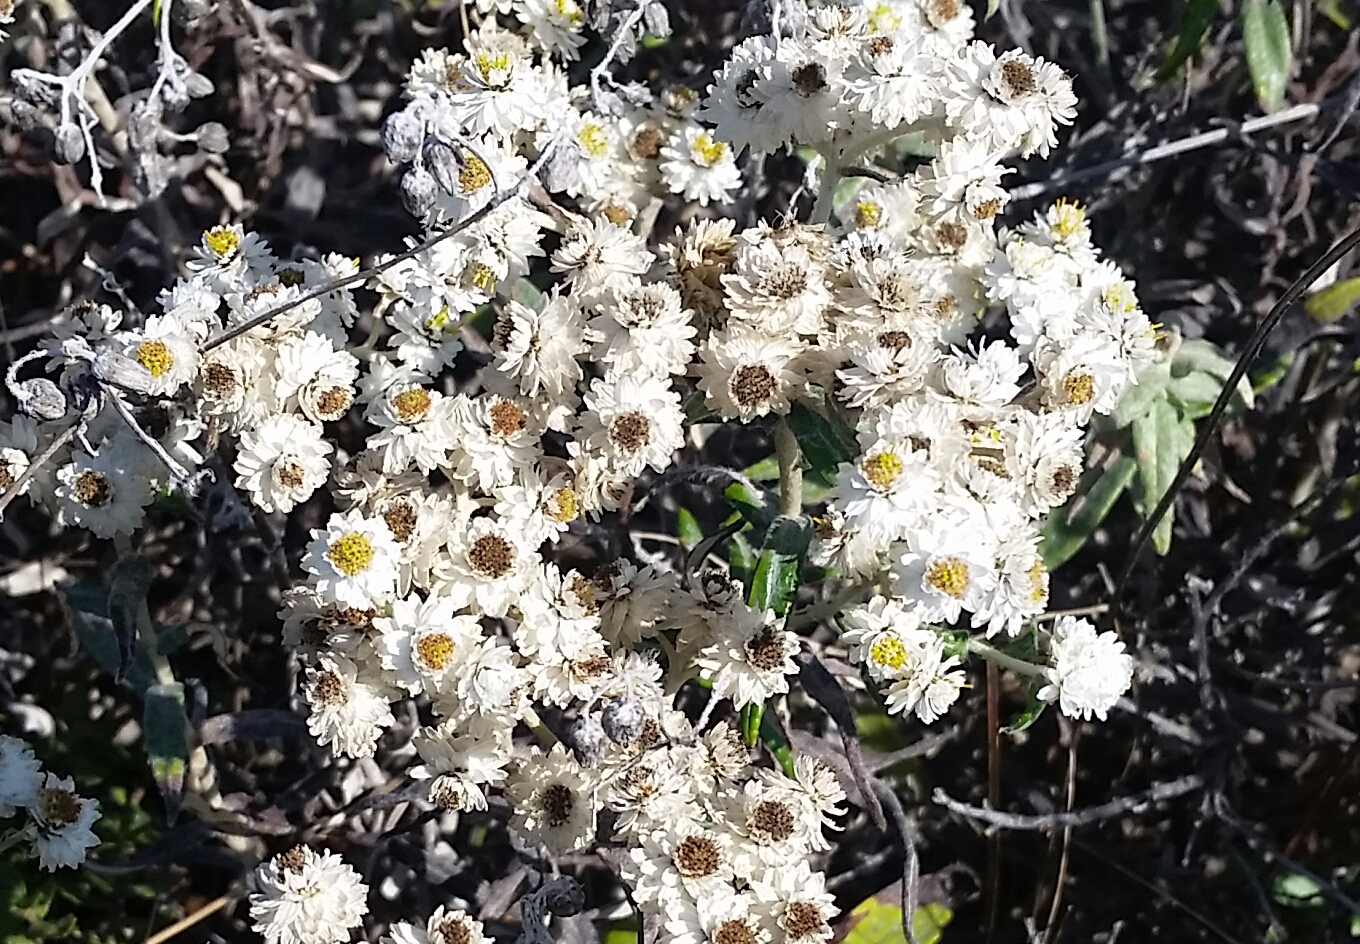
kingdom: Plantae
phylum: Tracheophyta
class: Magnoliopsida
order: Asterales
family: Asteraceae
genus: Anaphalis
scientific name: Anaphalis margaritacea
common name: Pearly everlasting
